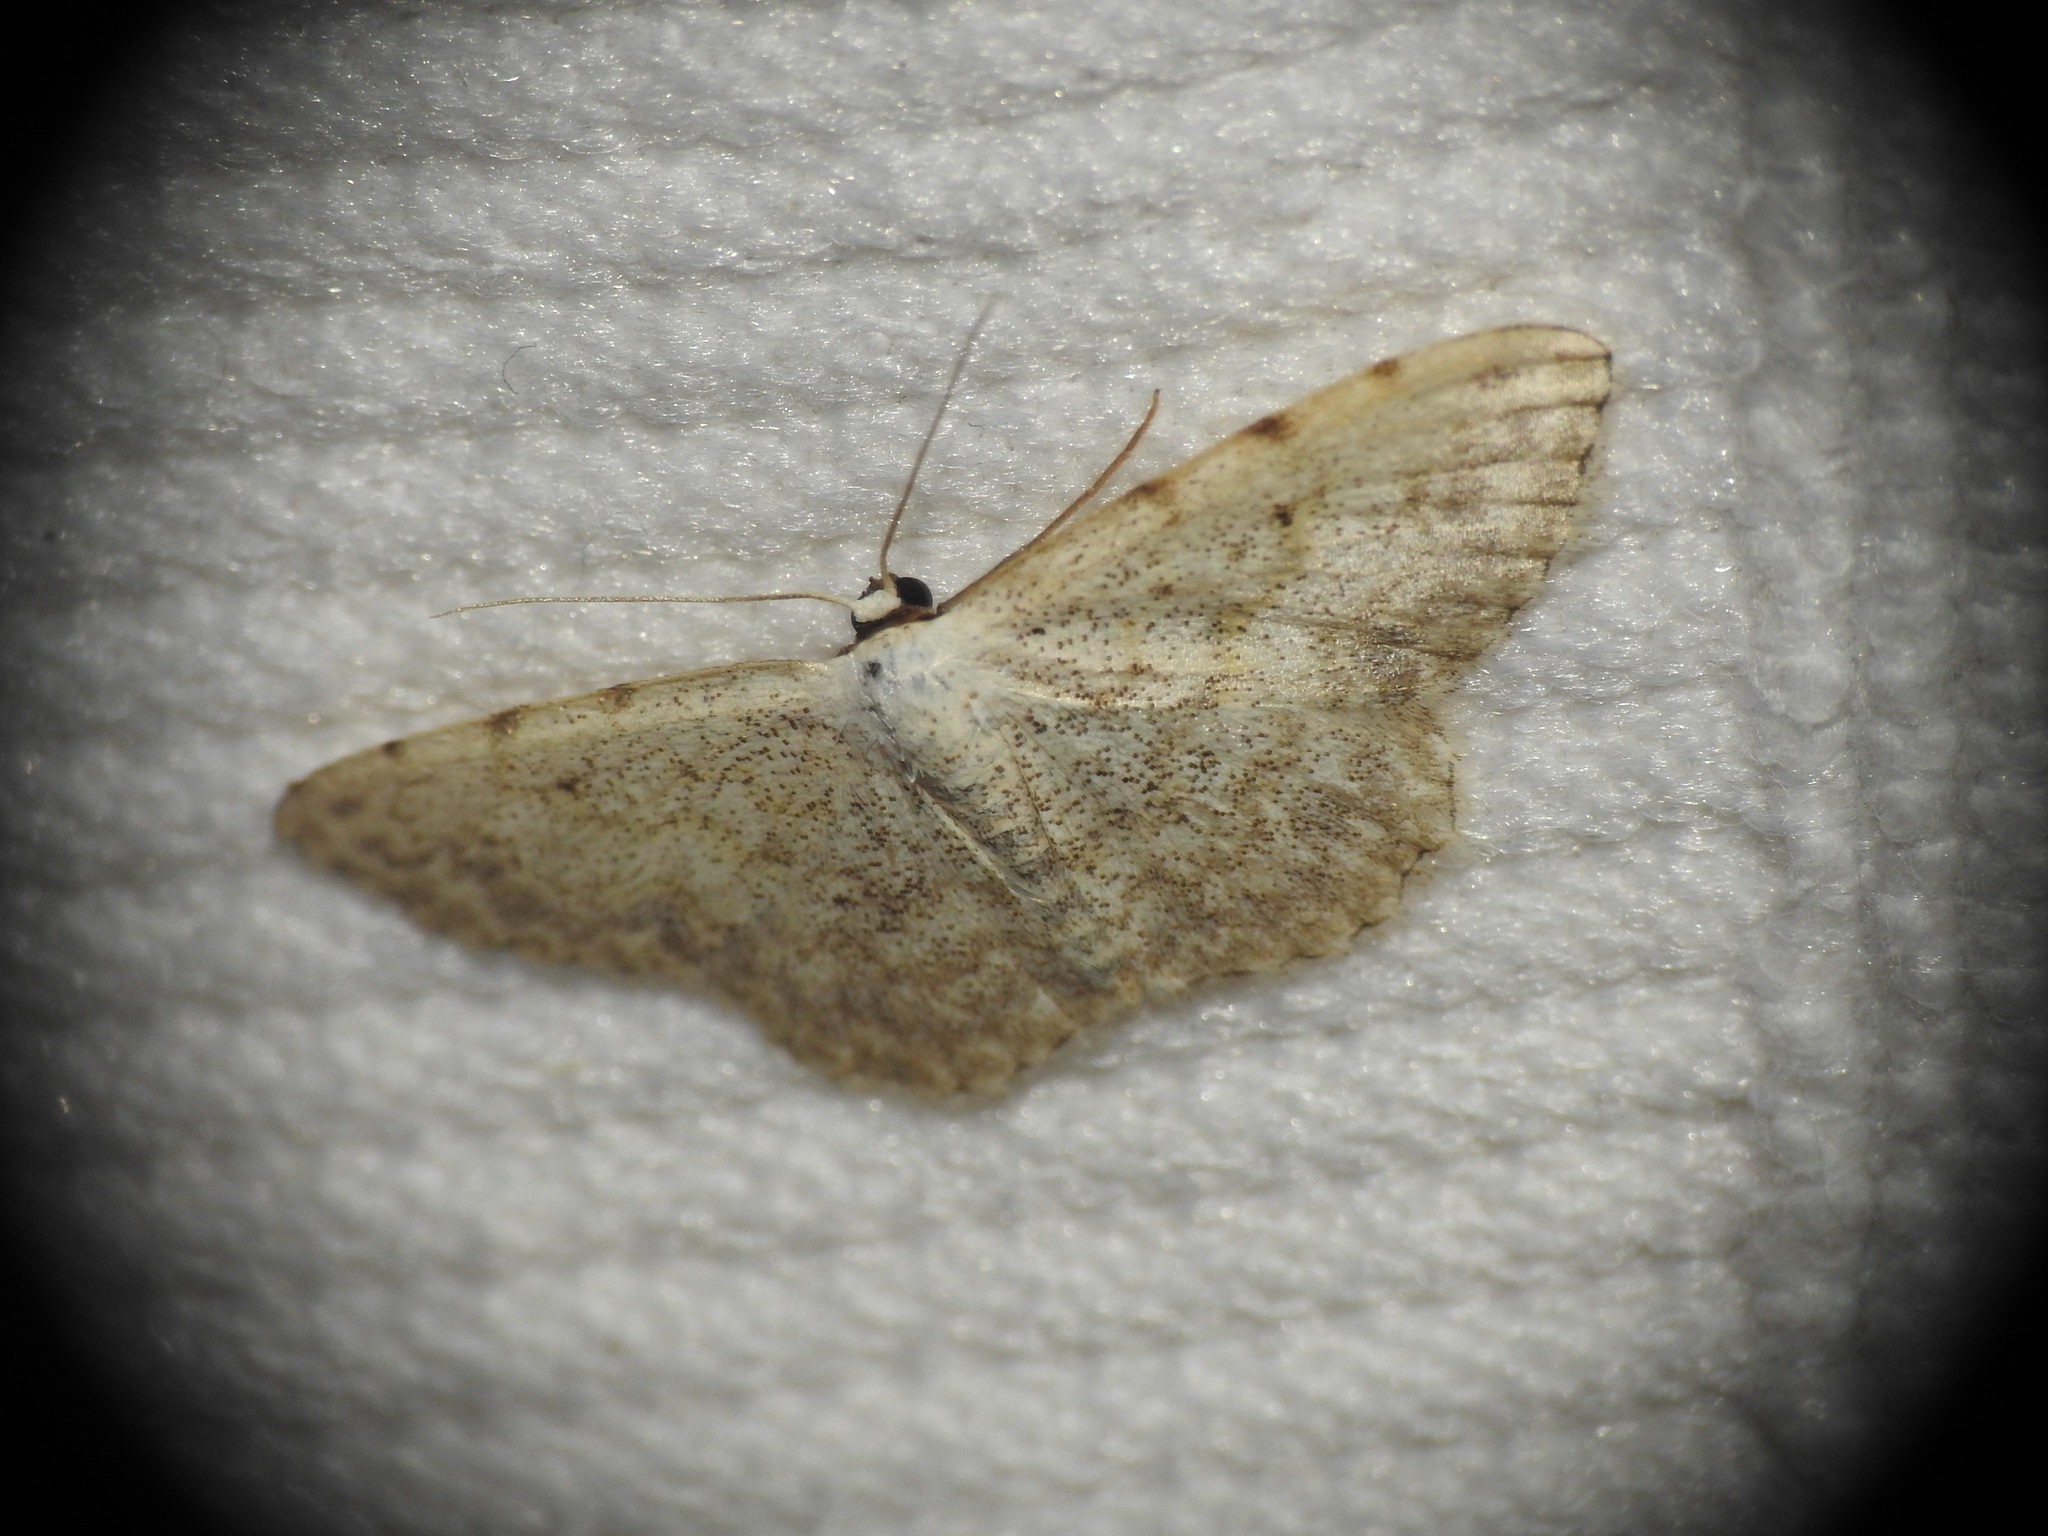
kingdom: Animalia
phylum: Arthropoda
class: Insecta
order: Lepidoptera
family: Geometridae
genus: Scopula
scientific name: Scopula submutata
